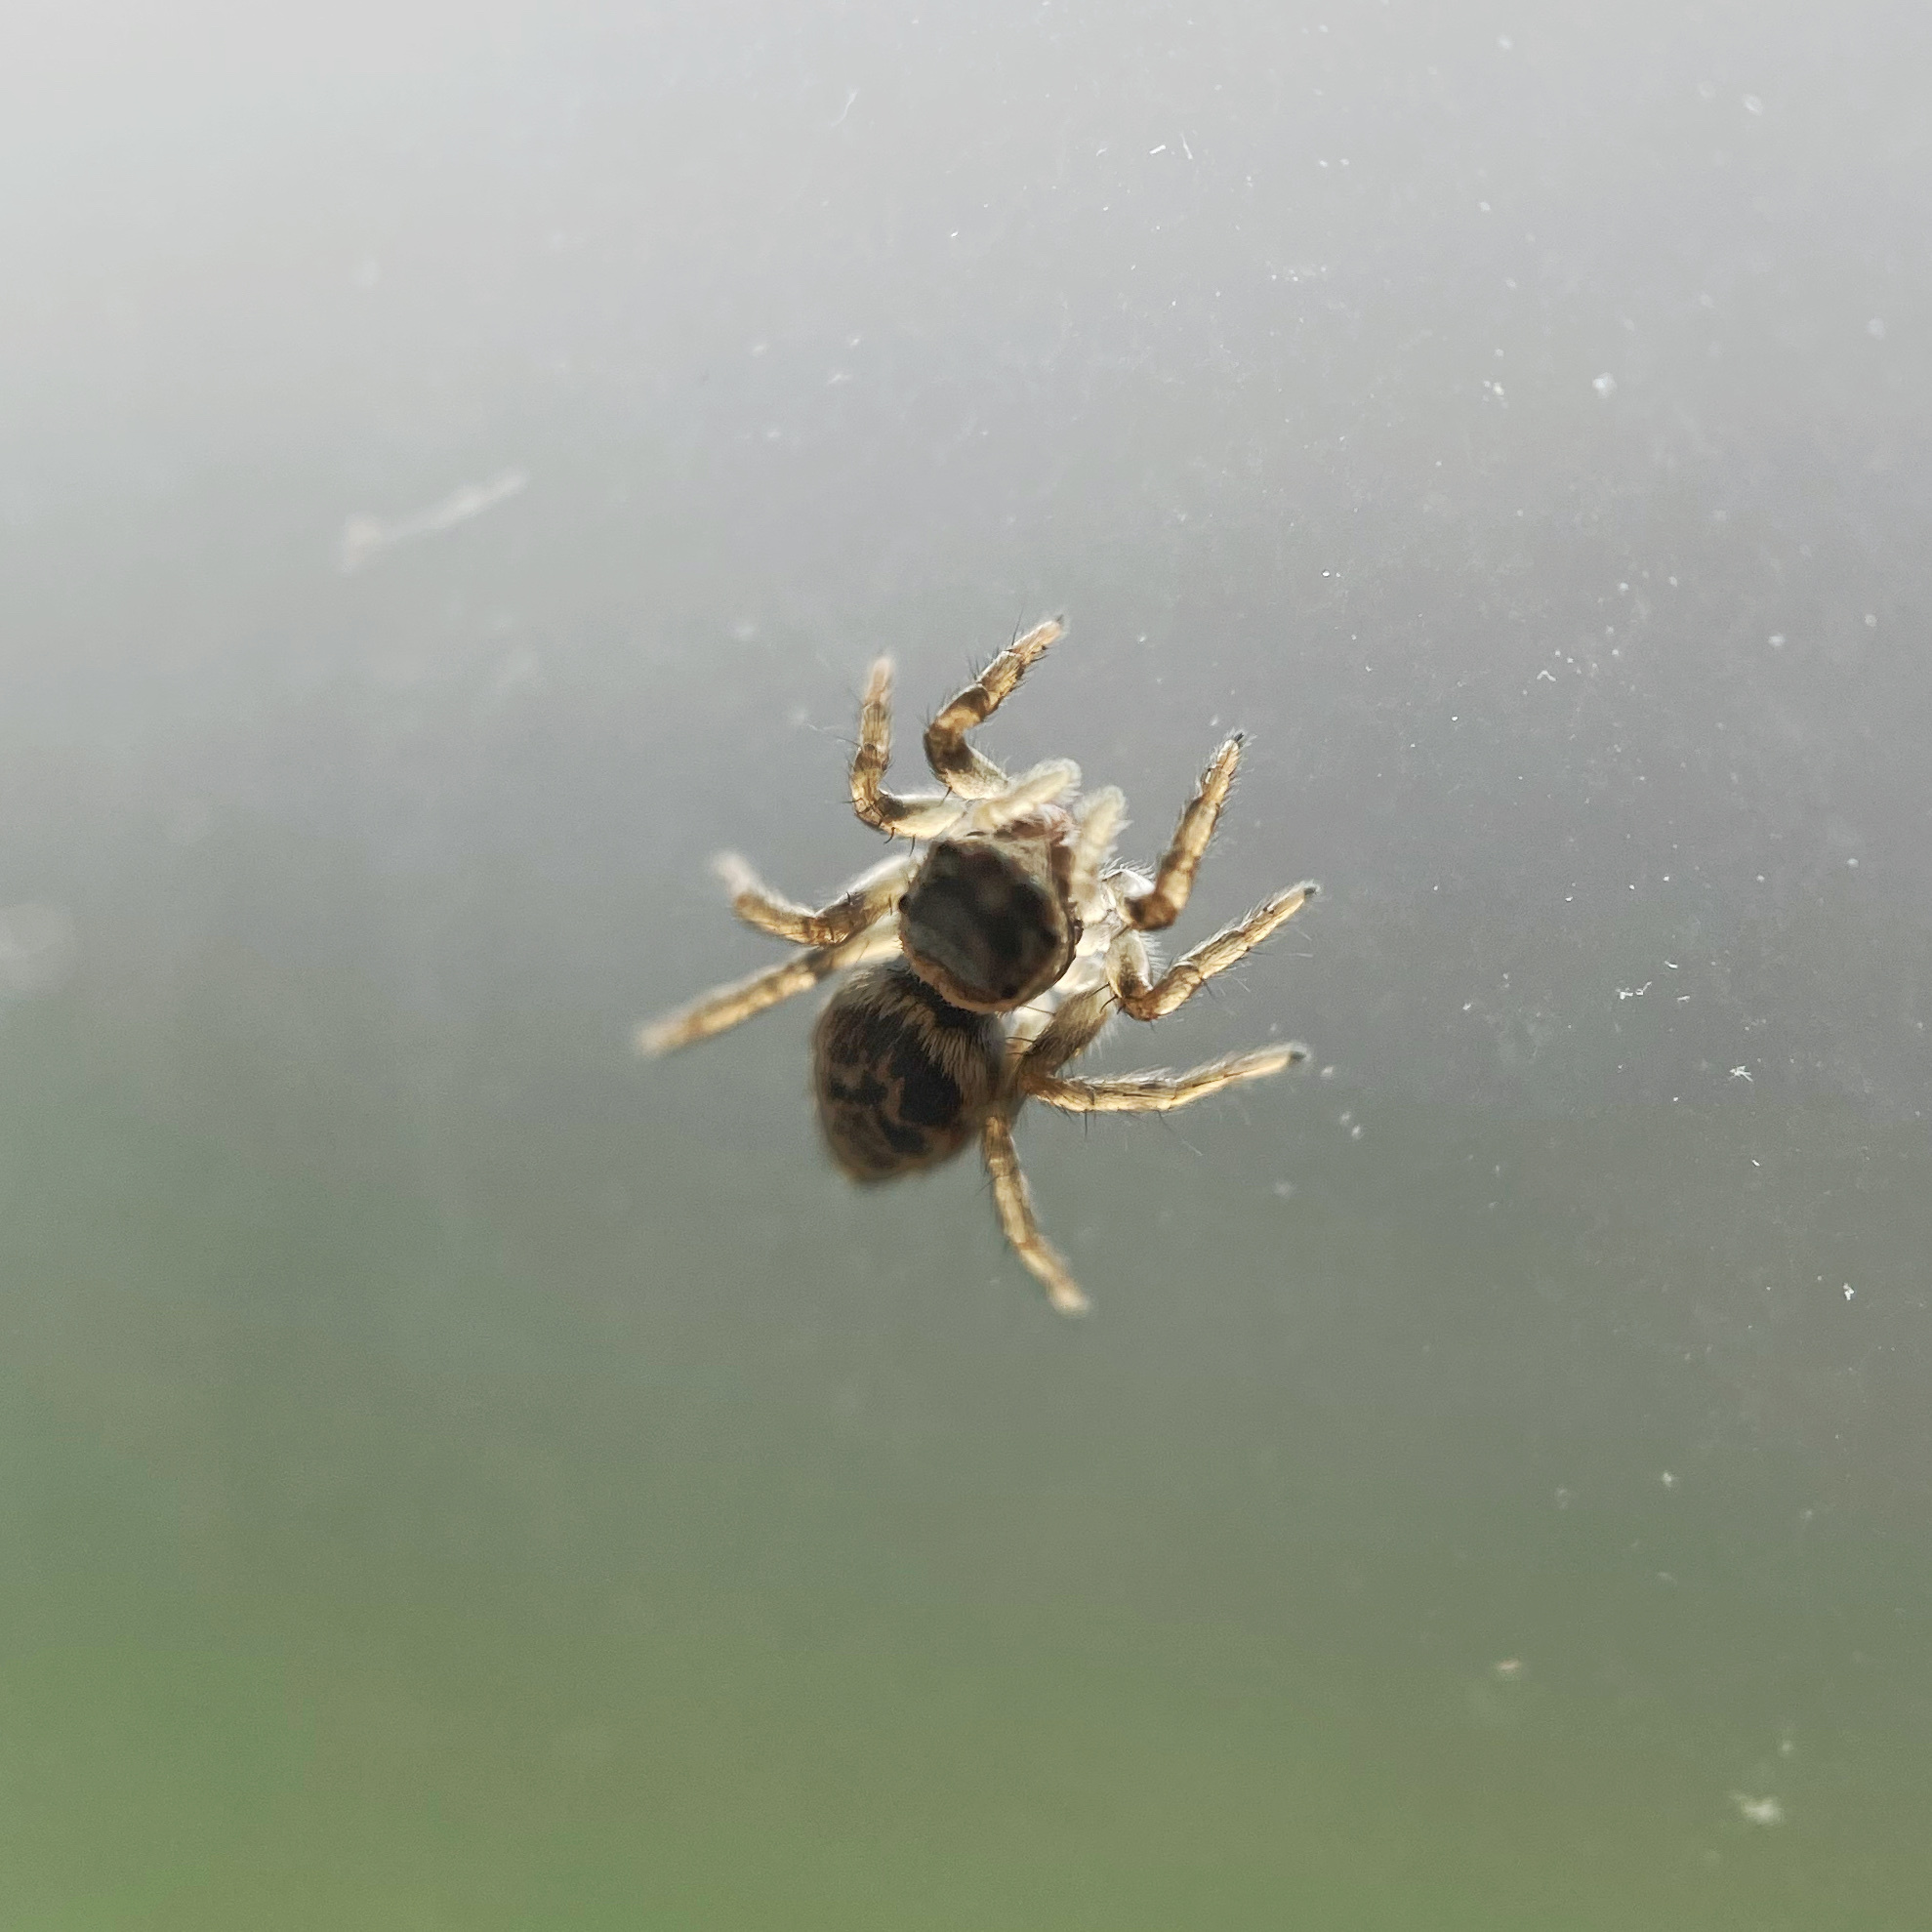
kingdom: Animalia
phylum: Arthropoda
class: Arachnida
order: Araneae
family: Salticidae
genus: Maratus
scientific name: Maratus griseus
